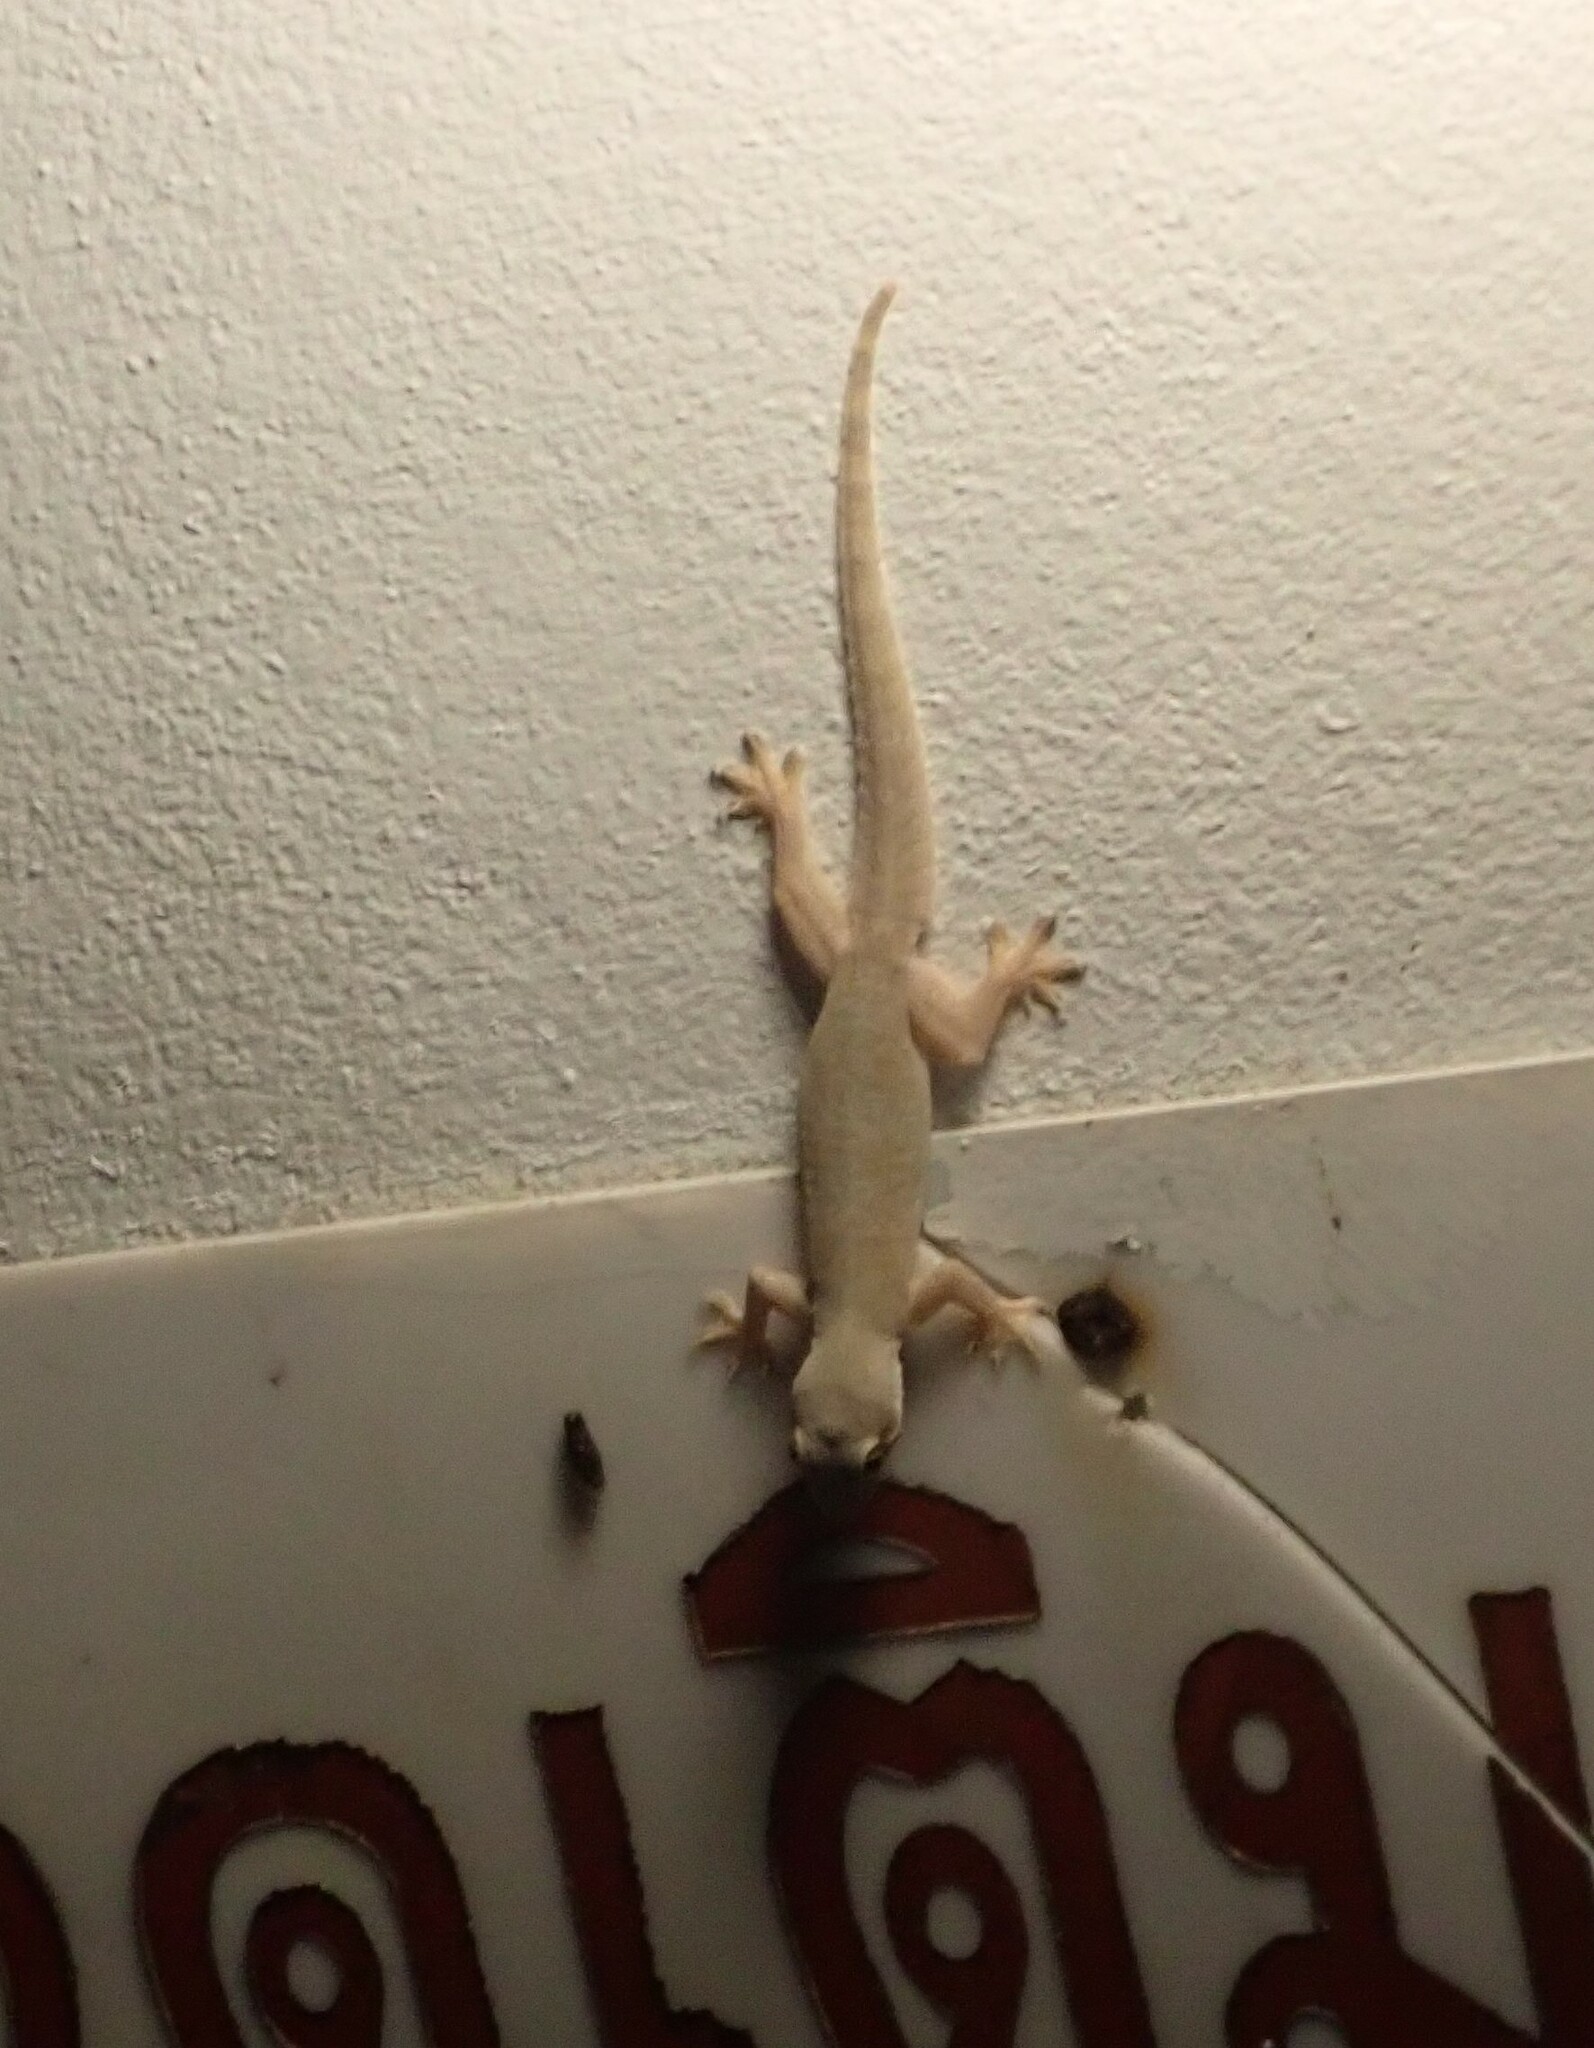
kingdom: Animalia
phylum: Chordata
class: Squamata
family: Gekkonidae
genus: Hemidactylus
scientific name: Hemidactylus platyurus
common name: Flat-tailed house gecko
